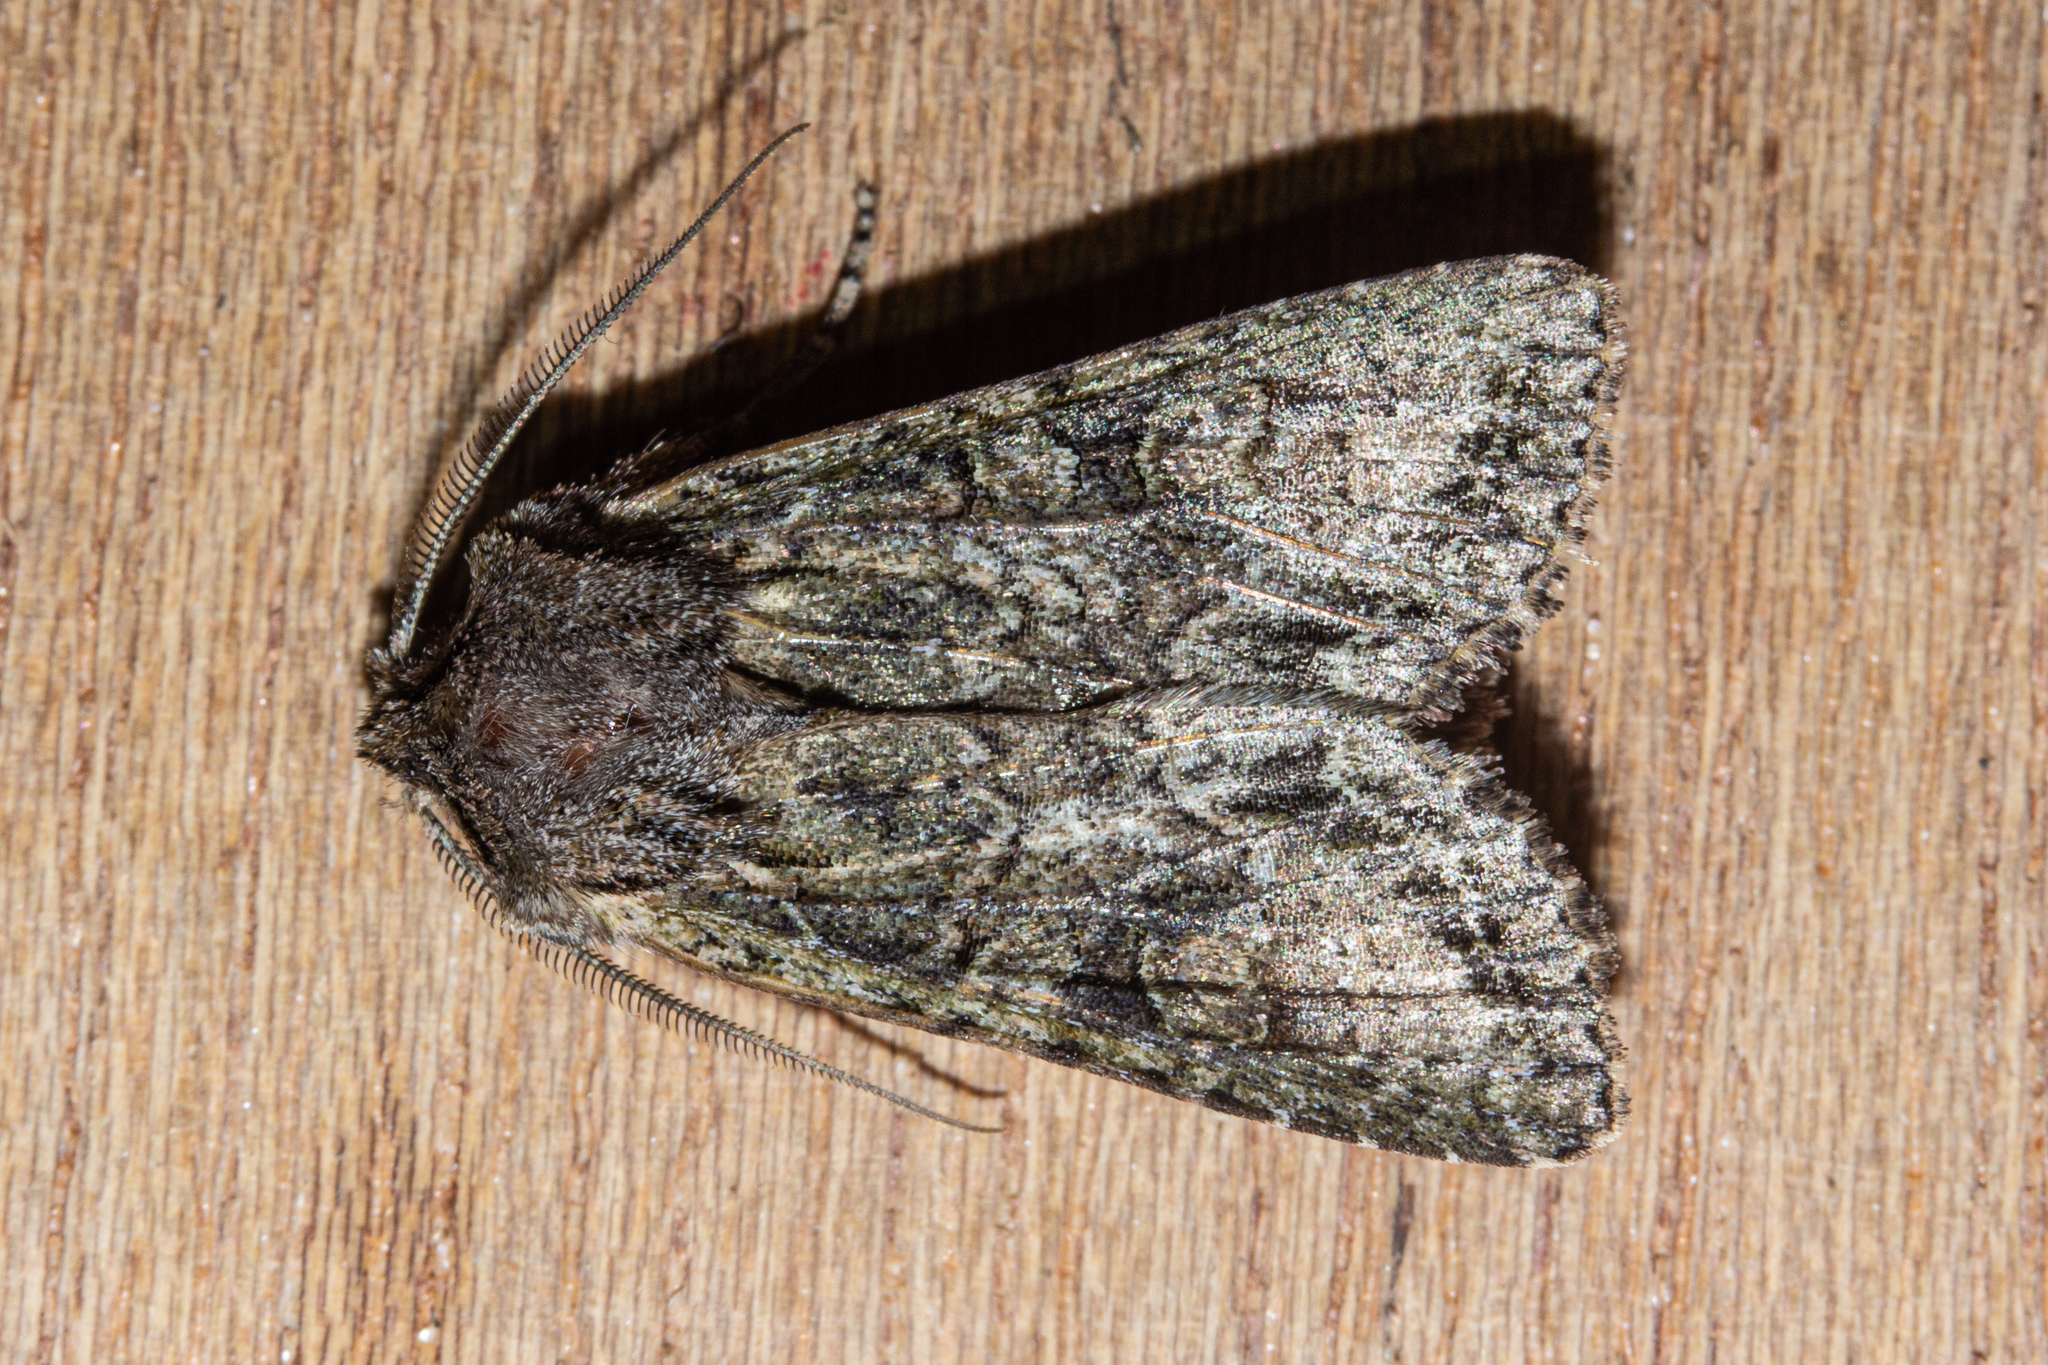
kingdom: Animalia
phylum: Arthropoda
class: Insecta
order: Lepidoptera
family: Noctuidae
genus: Ichneutica
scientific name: Ichneutica mutans
